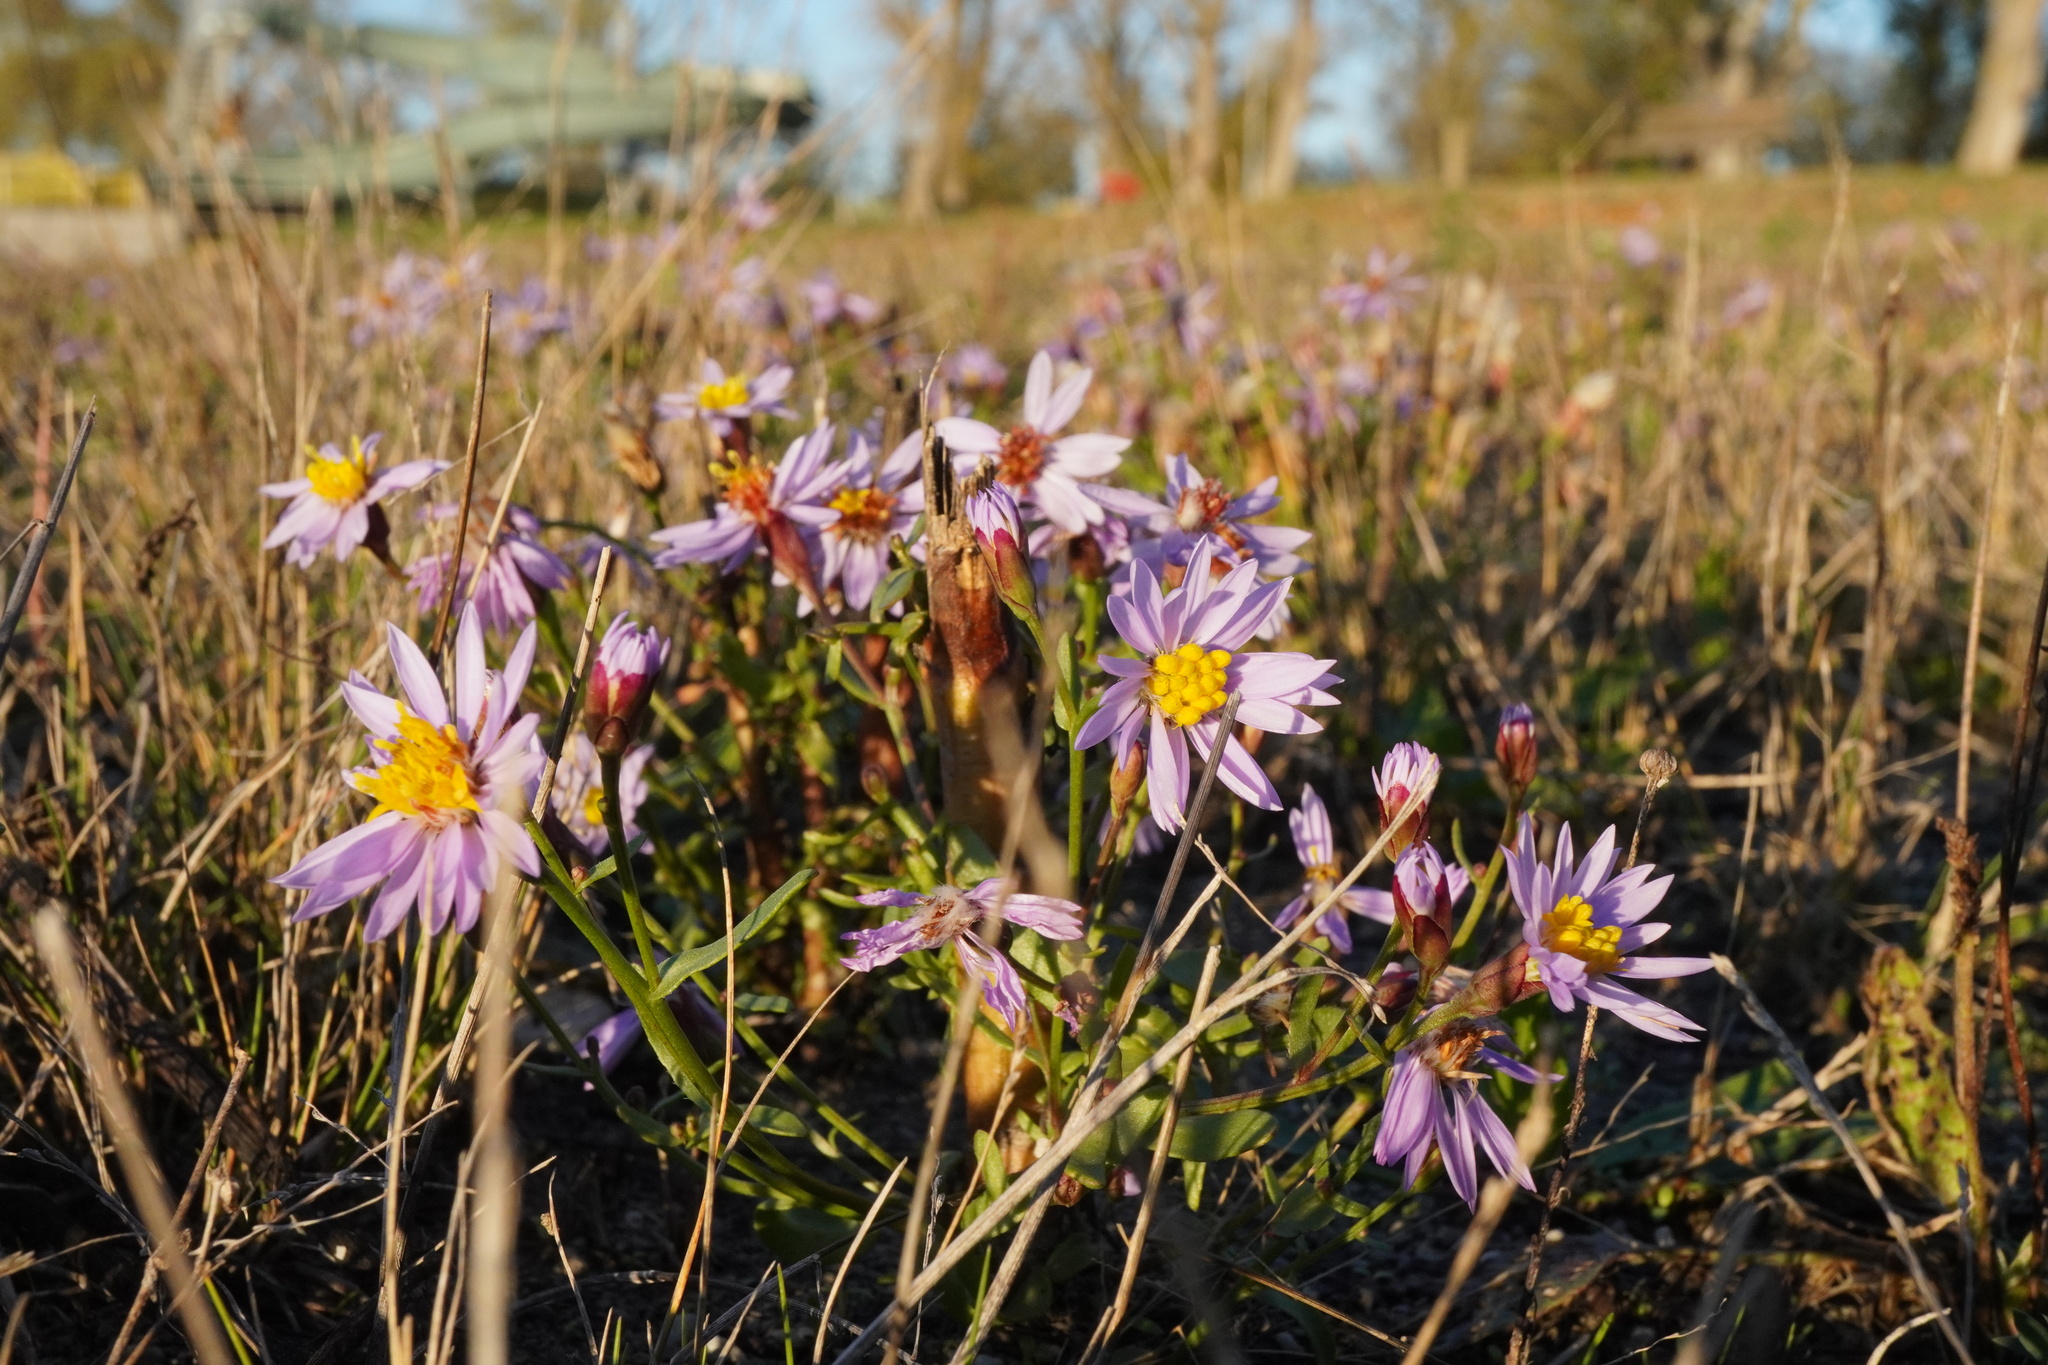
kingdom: Plantae
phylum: Tracheophyta
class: Magnoliopsida
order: Asterales
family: Asteraceae
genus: Tripolium
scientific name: Tripolium pannonicum
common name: Sea aster
